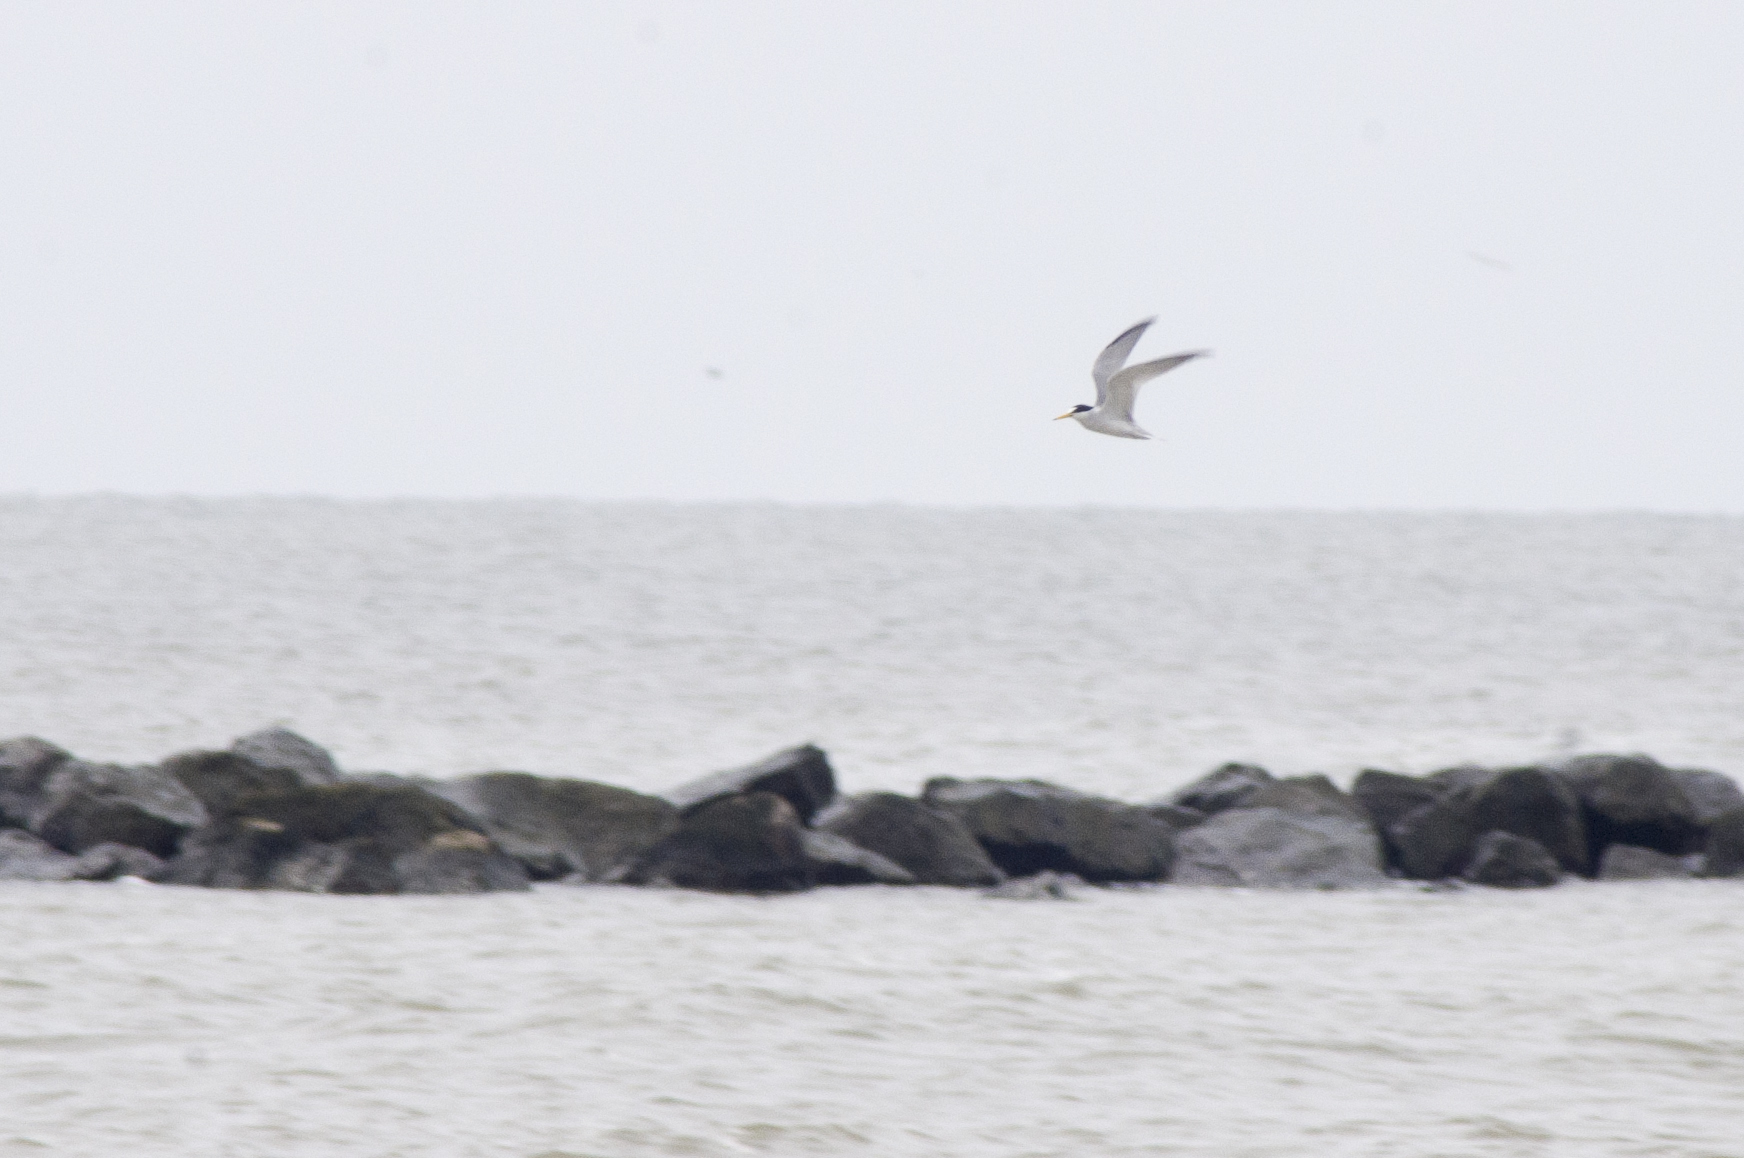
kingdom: Animalia
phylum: Chordata
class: Aves
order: Charadriiformes
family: Laridae
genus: Sternula
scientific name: Sternula antillarum
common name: Least tern
